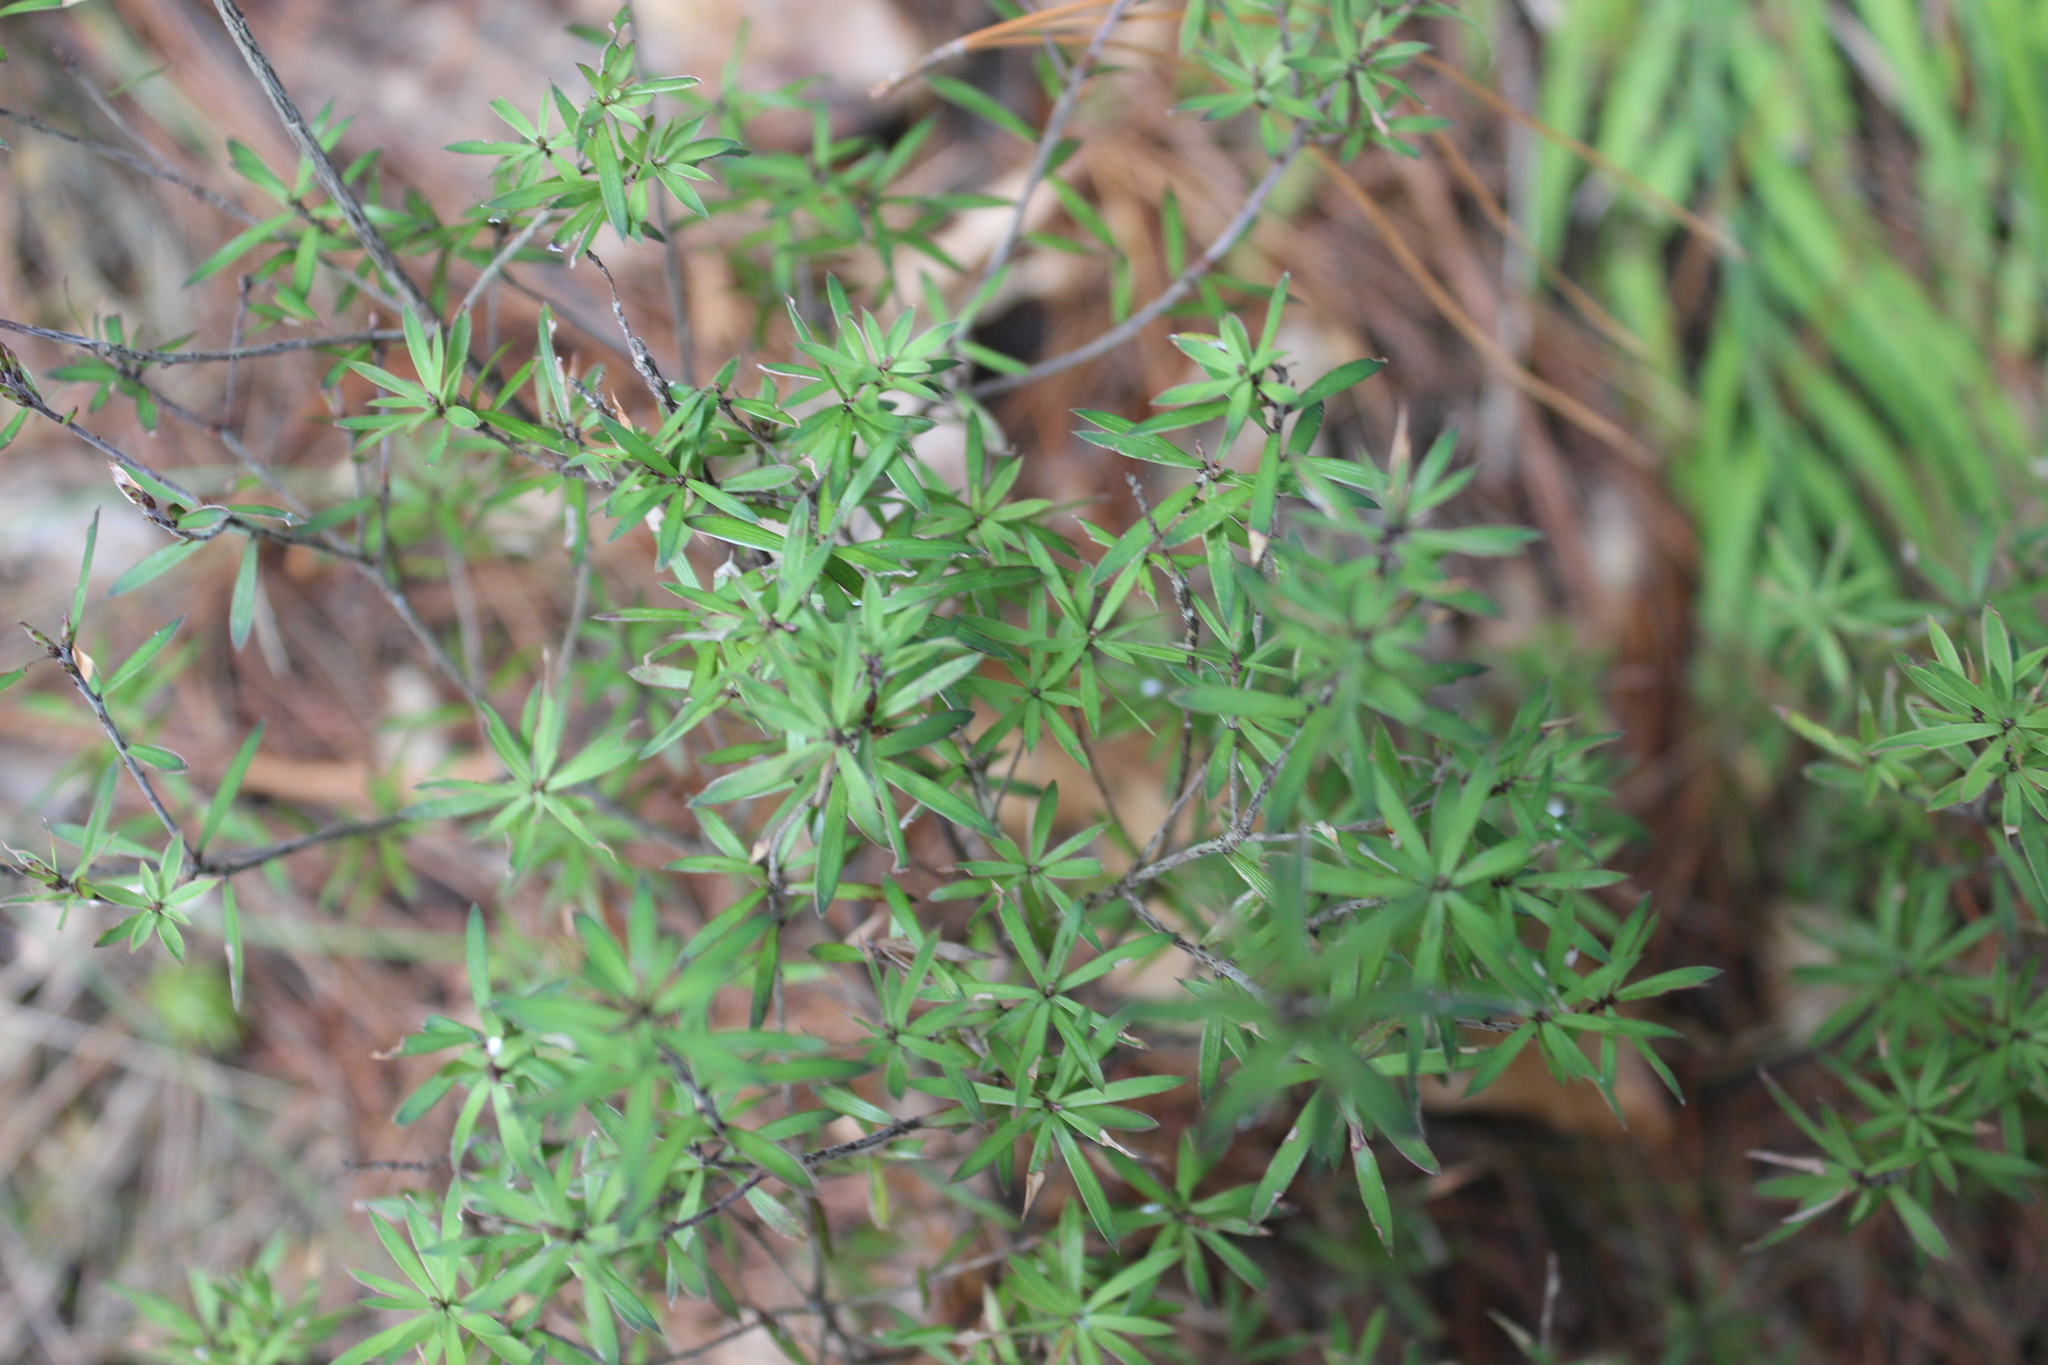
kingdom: Plantae
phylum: Tracheophyta
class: Magnoliopsida
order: Ericales
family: Ericaceae
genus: Leucopogon
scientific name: Leucopogon fasciculatus
